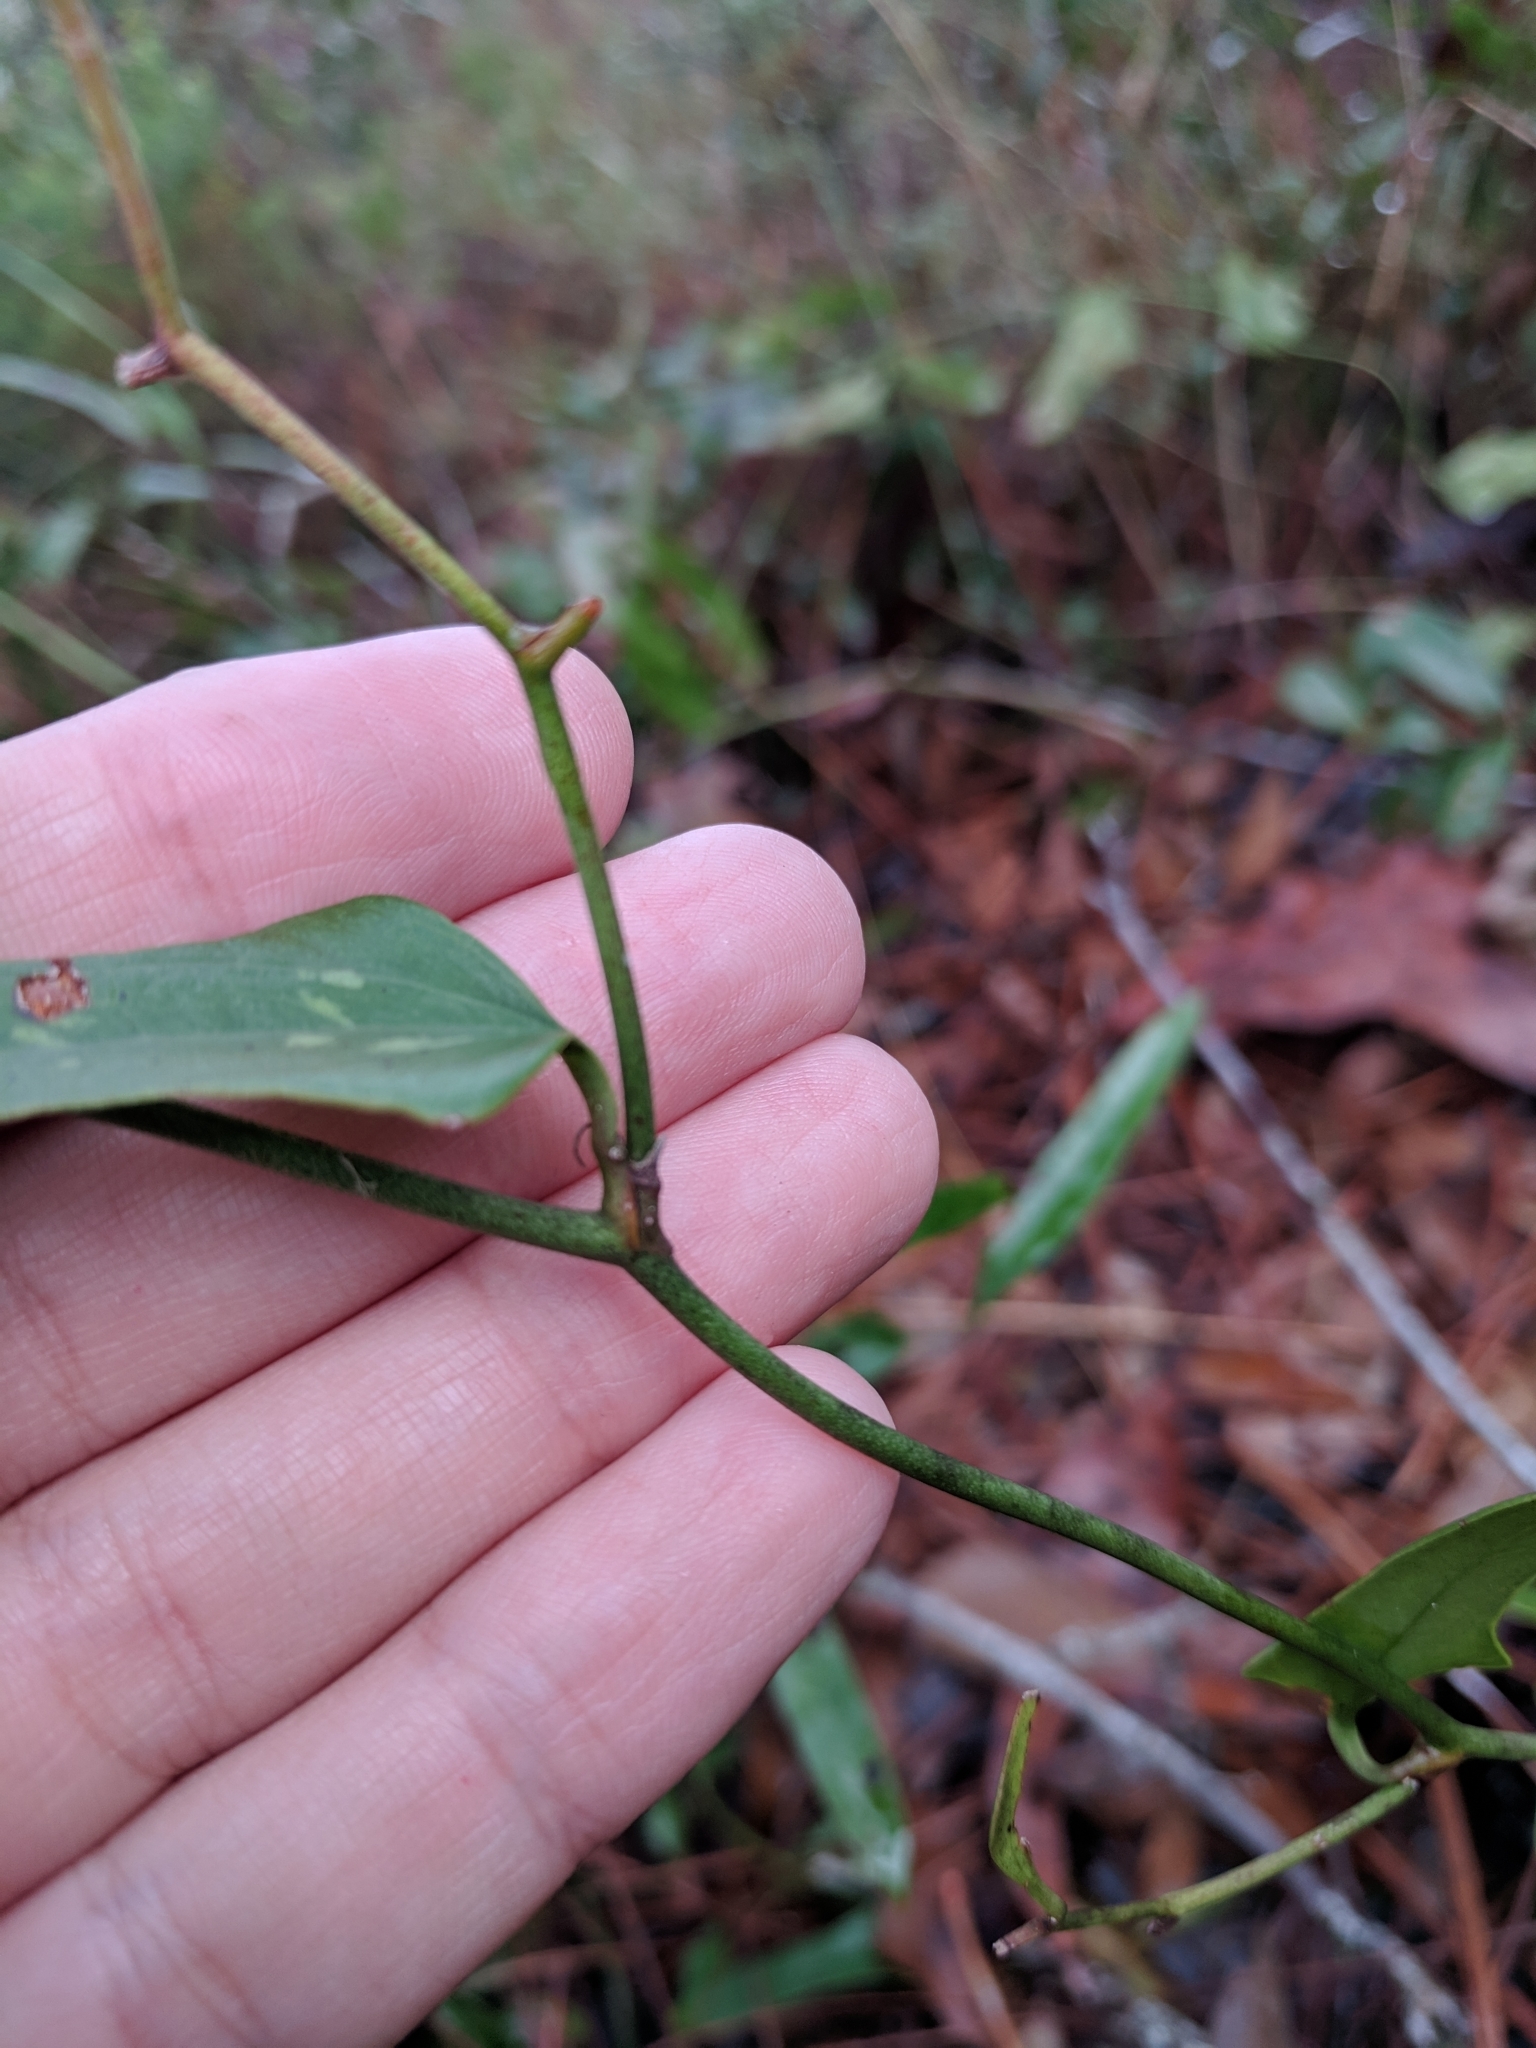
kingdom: Plantae
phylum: Tracheophyta
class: Liliopsida
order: Liliales
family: Smilacaceae
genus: Smilax
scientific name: Smilax auriculata
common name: Wild bamboo
